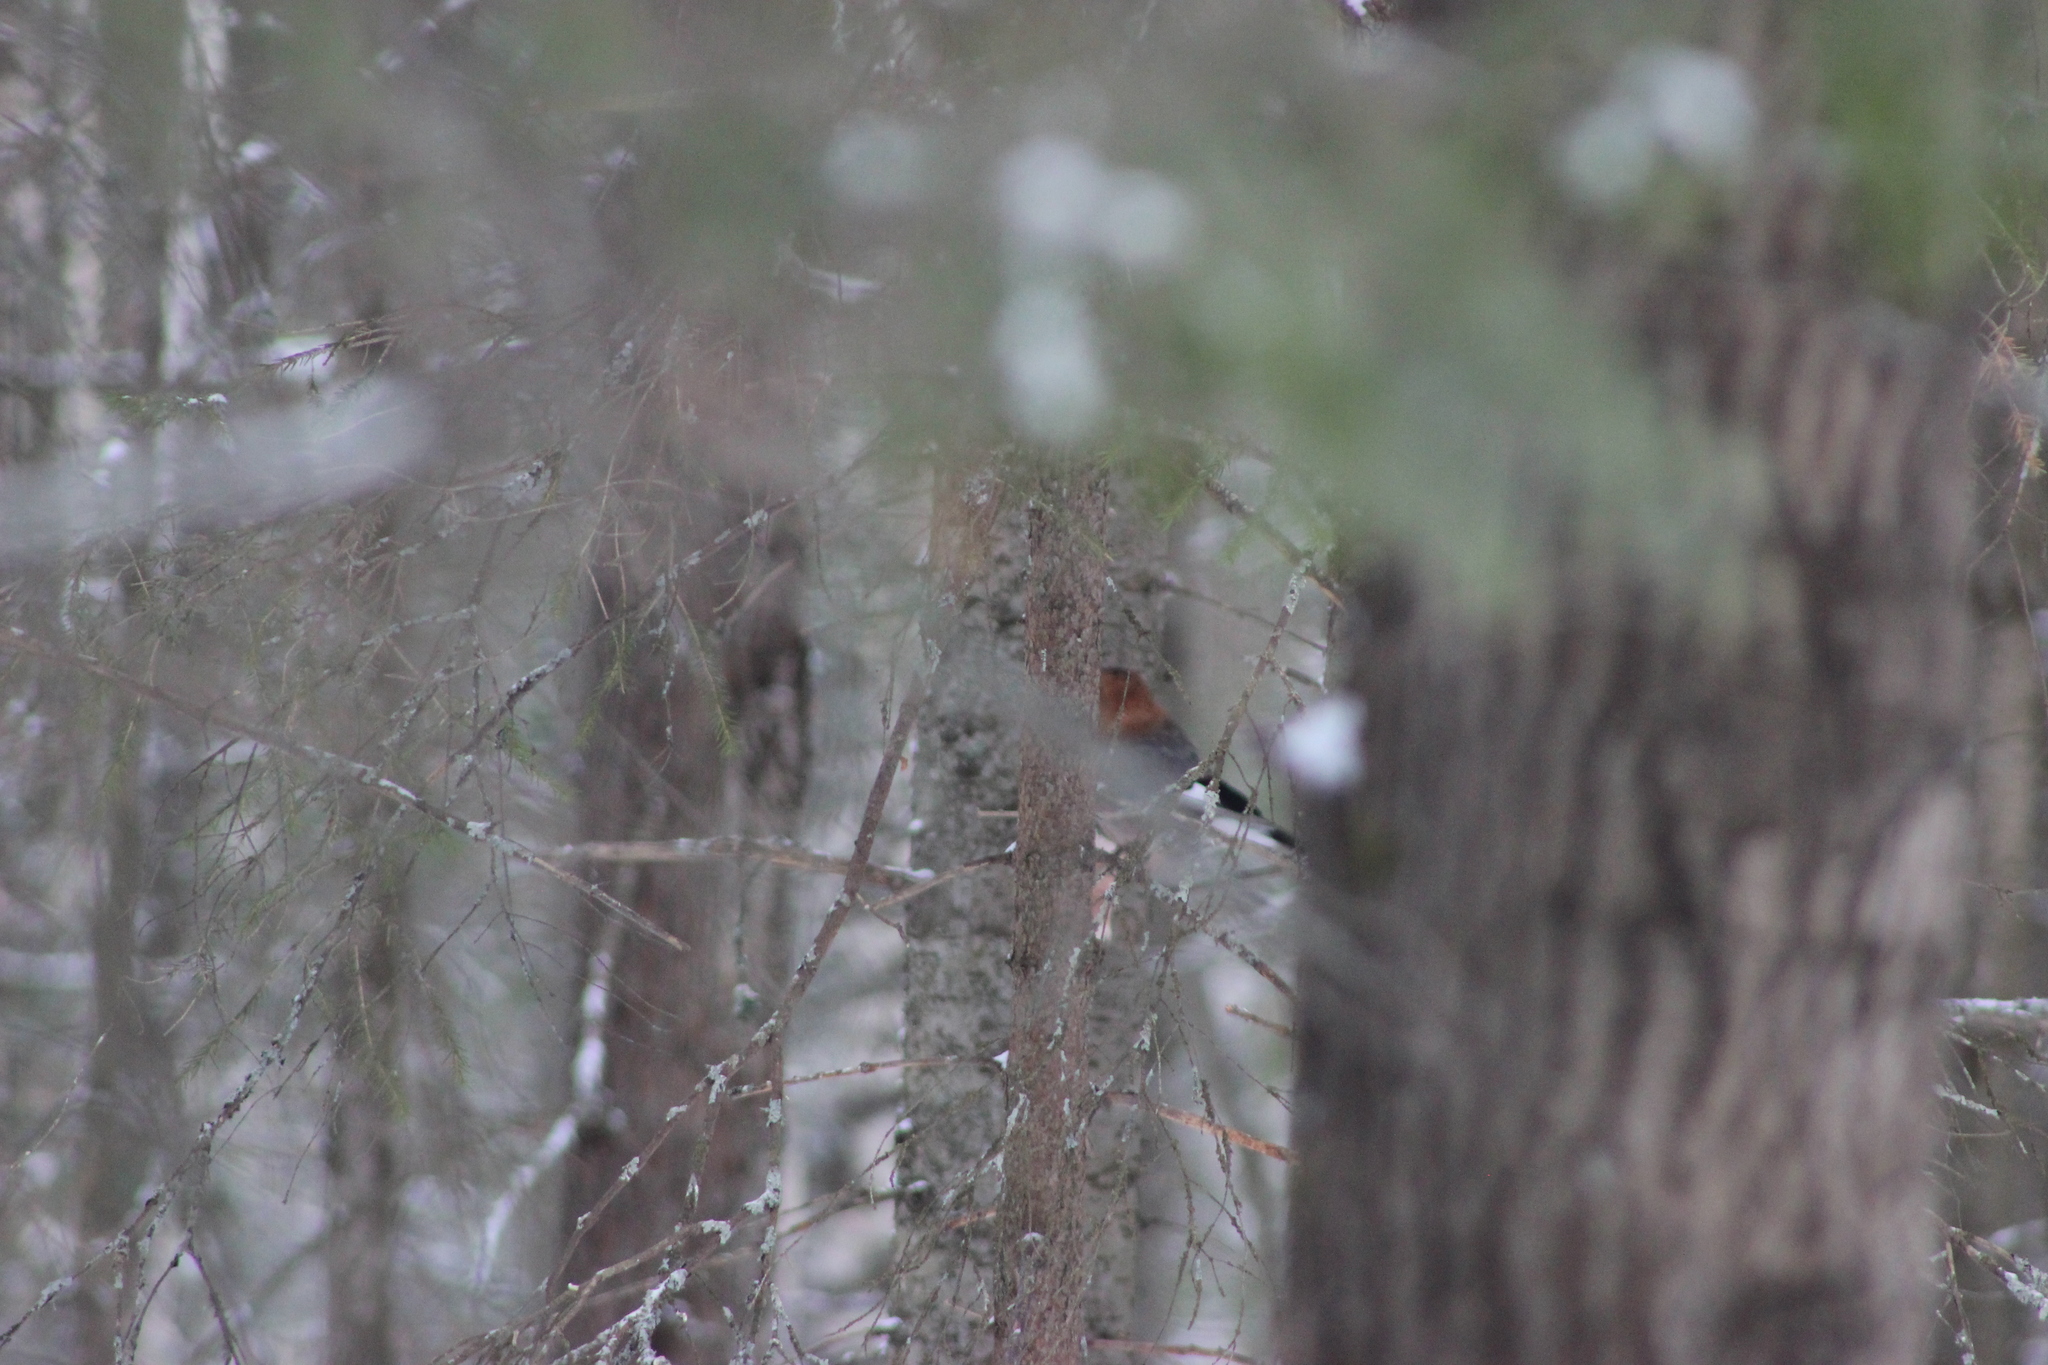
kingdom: Animalia
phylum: Chordata
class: Aves
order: Passeriformes
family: Corvidae
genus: Garrulus
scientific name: Garrulus glandarius
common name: Eurasian jay
